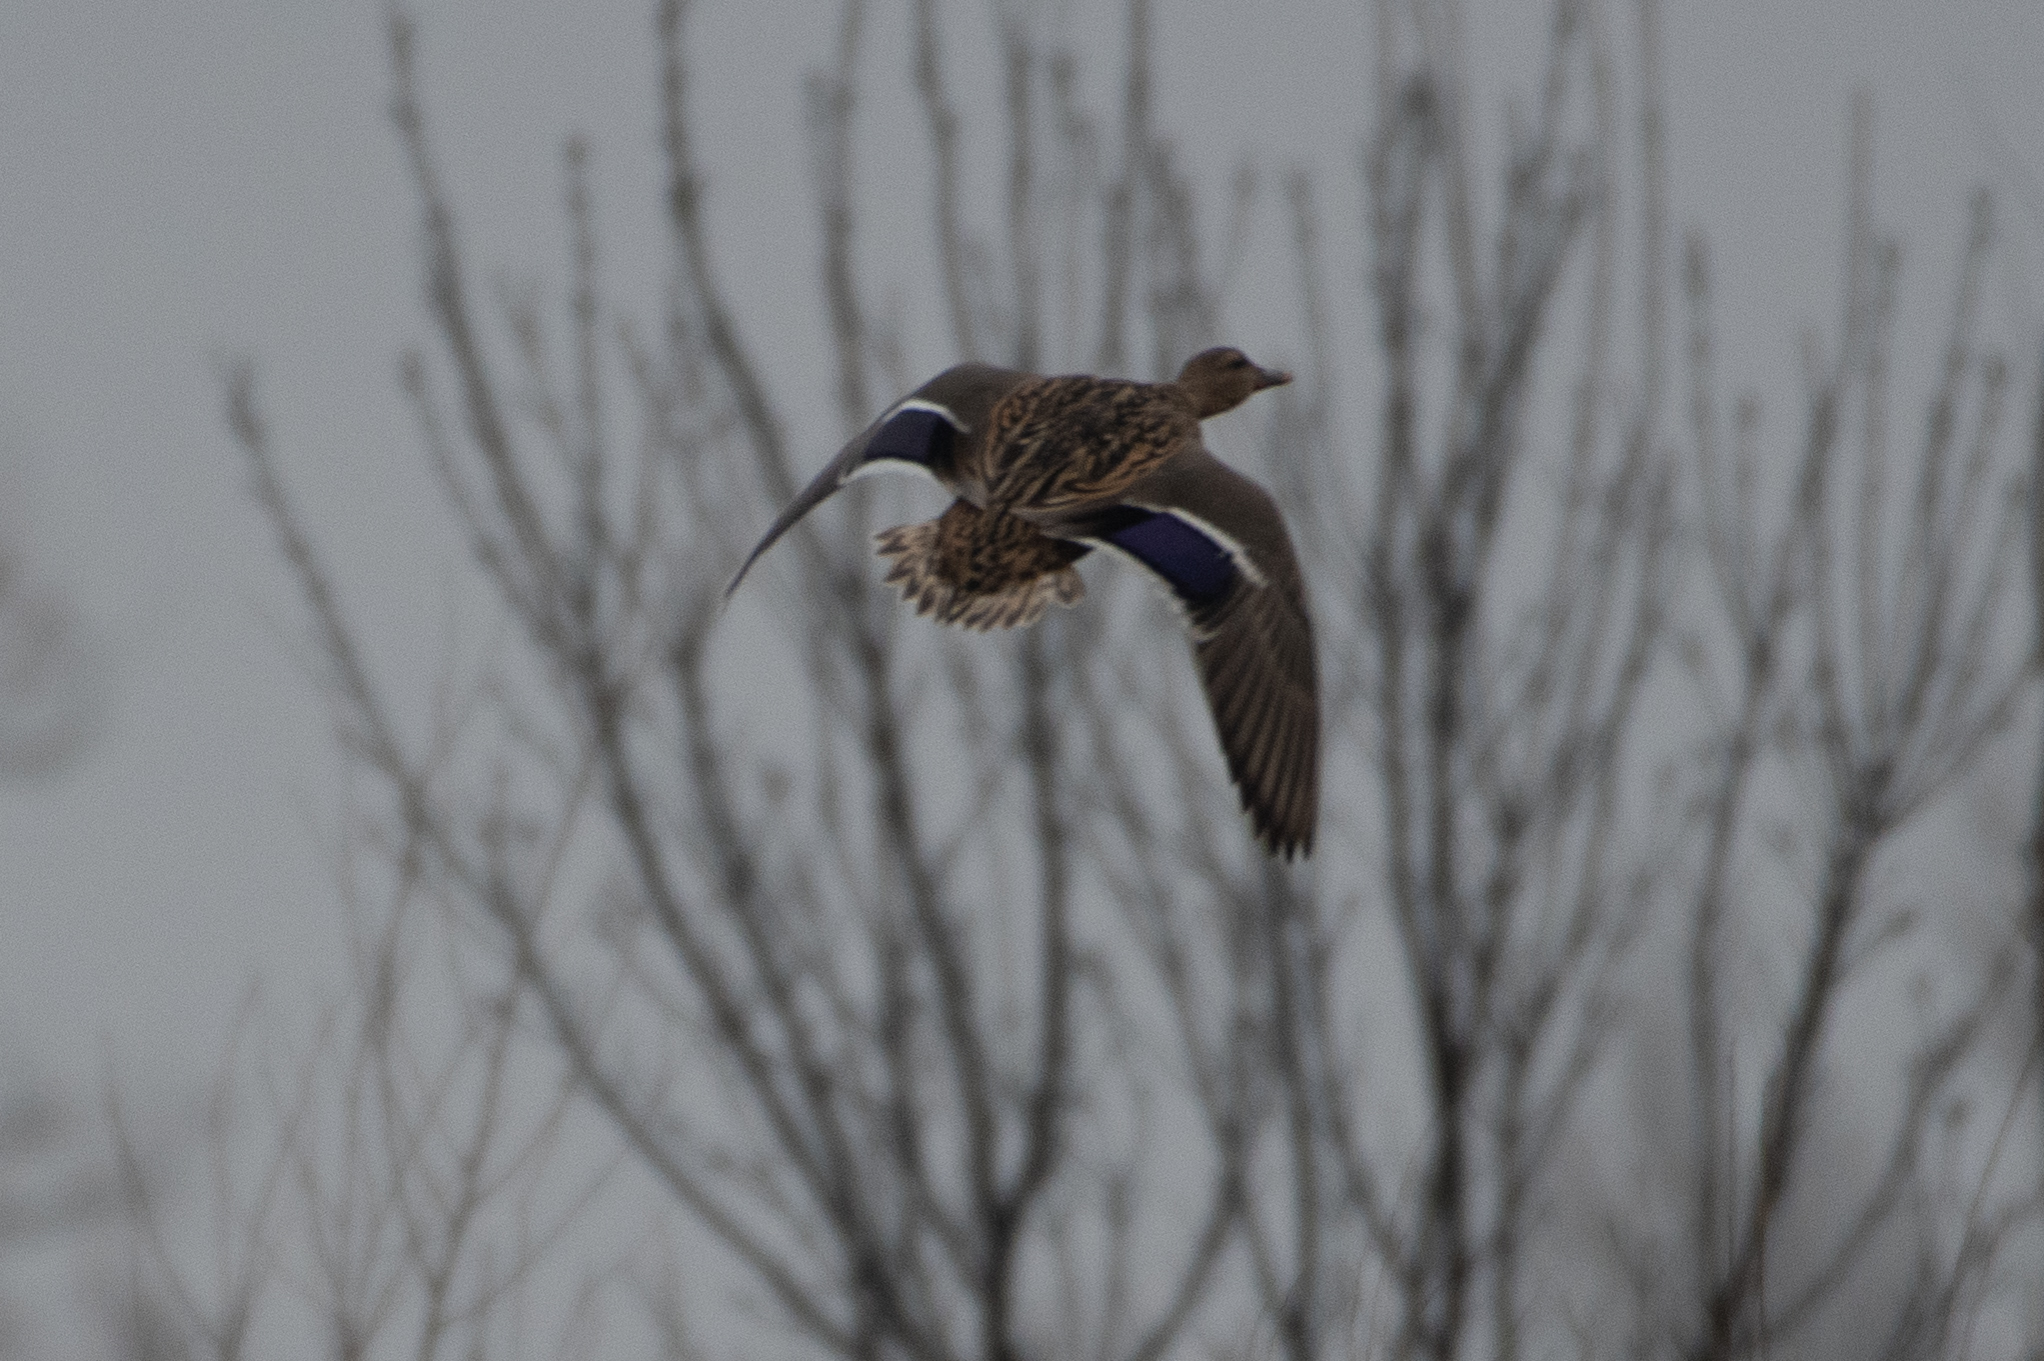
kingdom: Animalia
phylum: Chordata
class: Aves
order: Anseriformes
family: Anatidae
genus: Anas
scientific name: Anas platyrhynchos
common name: Mallard
